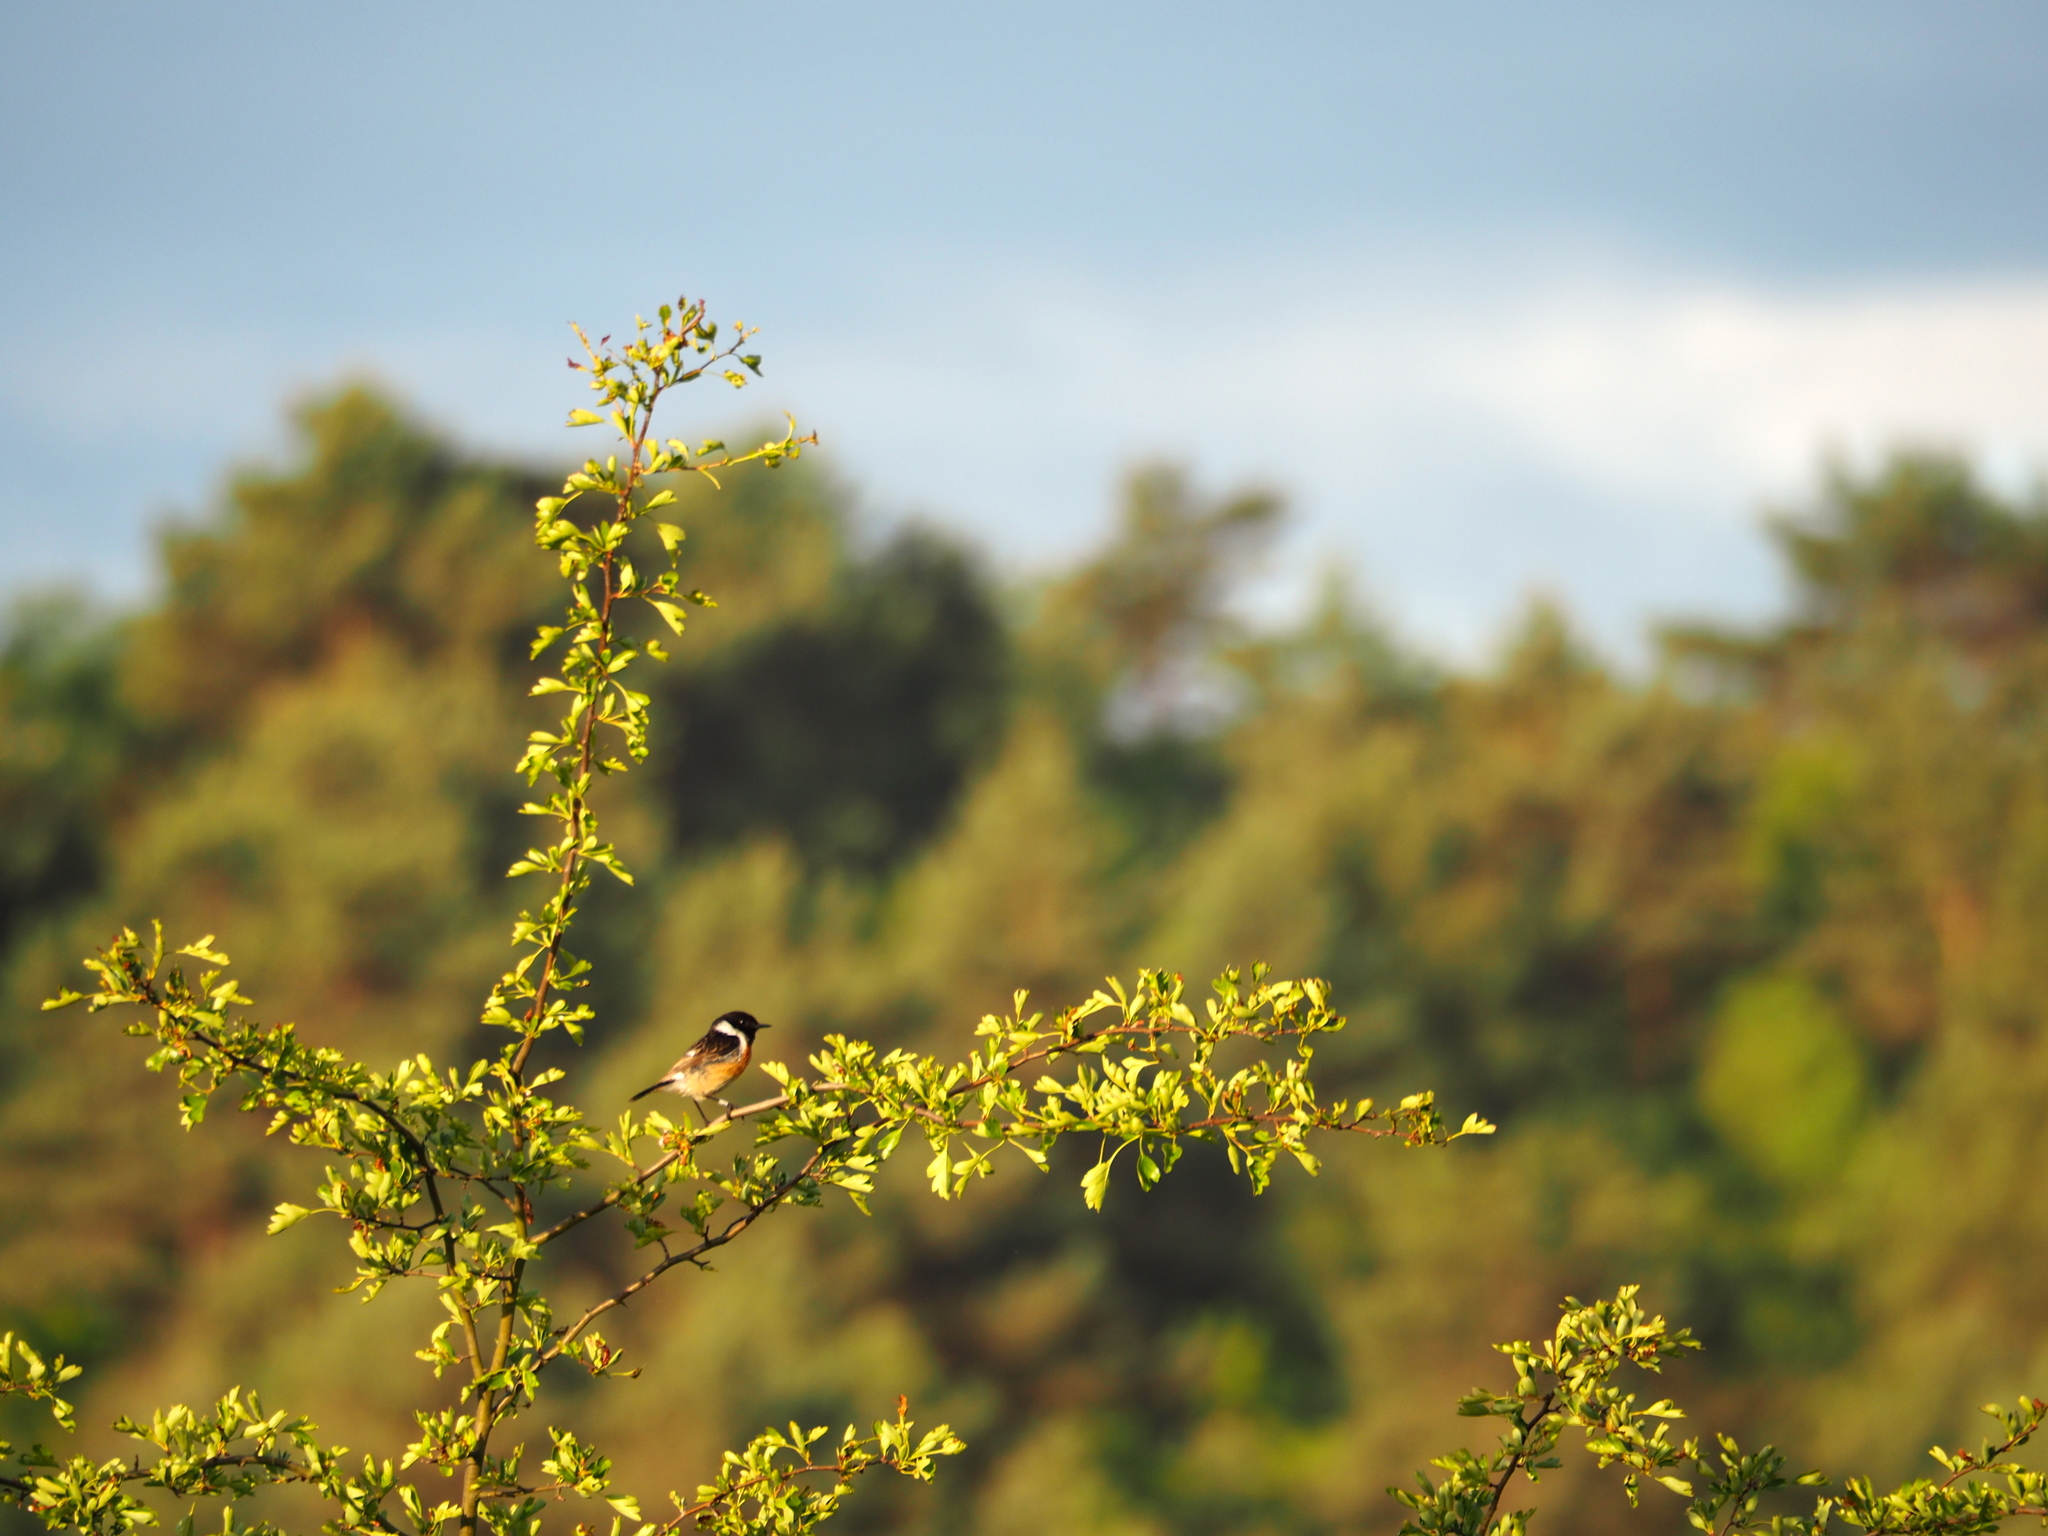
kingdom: Animalia
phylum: Chordata
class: Aves
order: Passeriformes
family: Muscicapidae
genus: Saxicola
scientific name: Saxicola rubicola
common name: European stonechat
